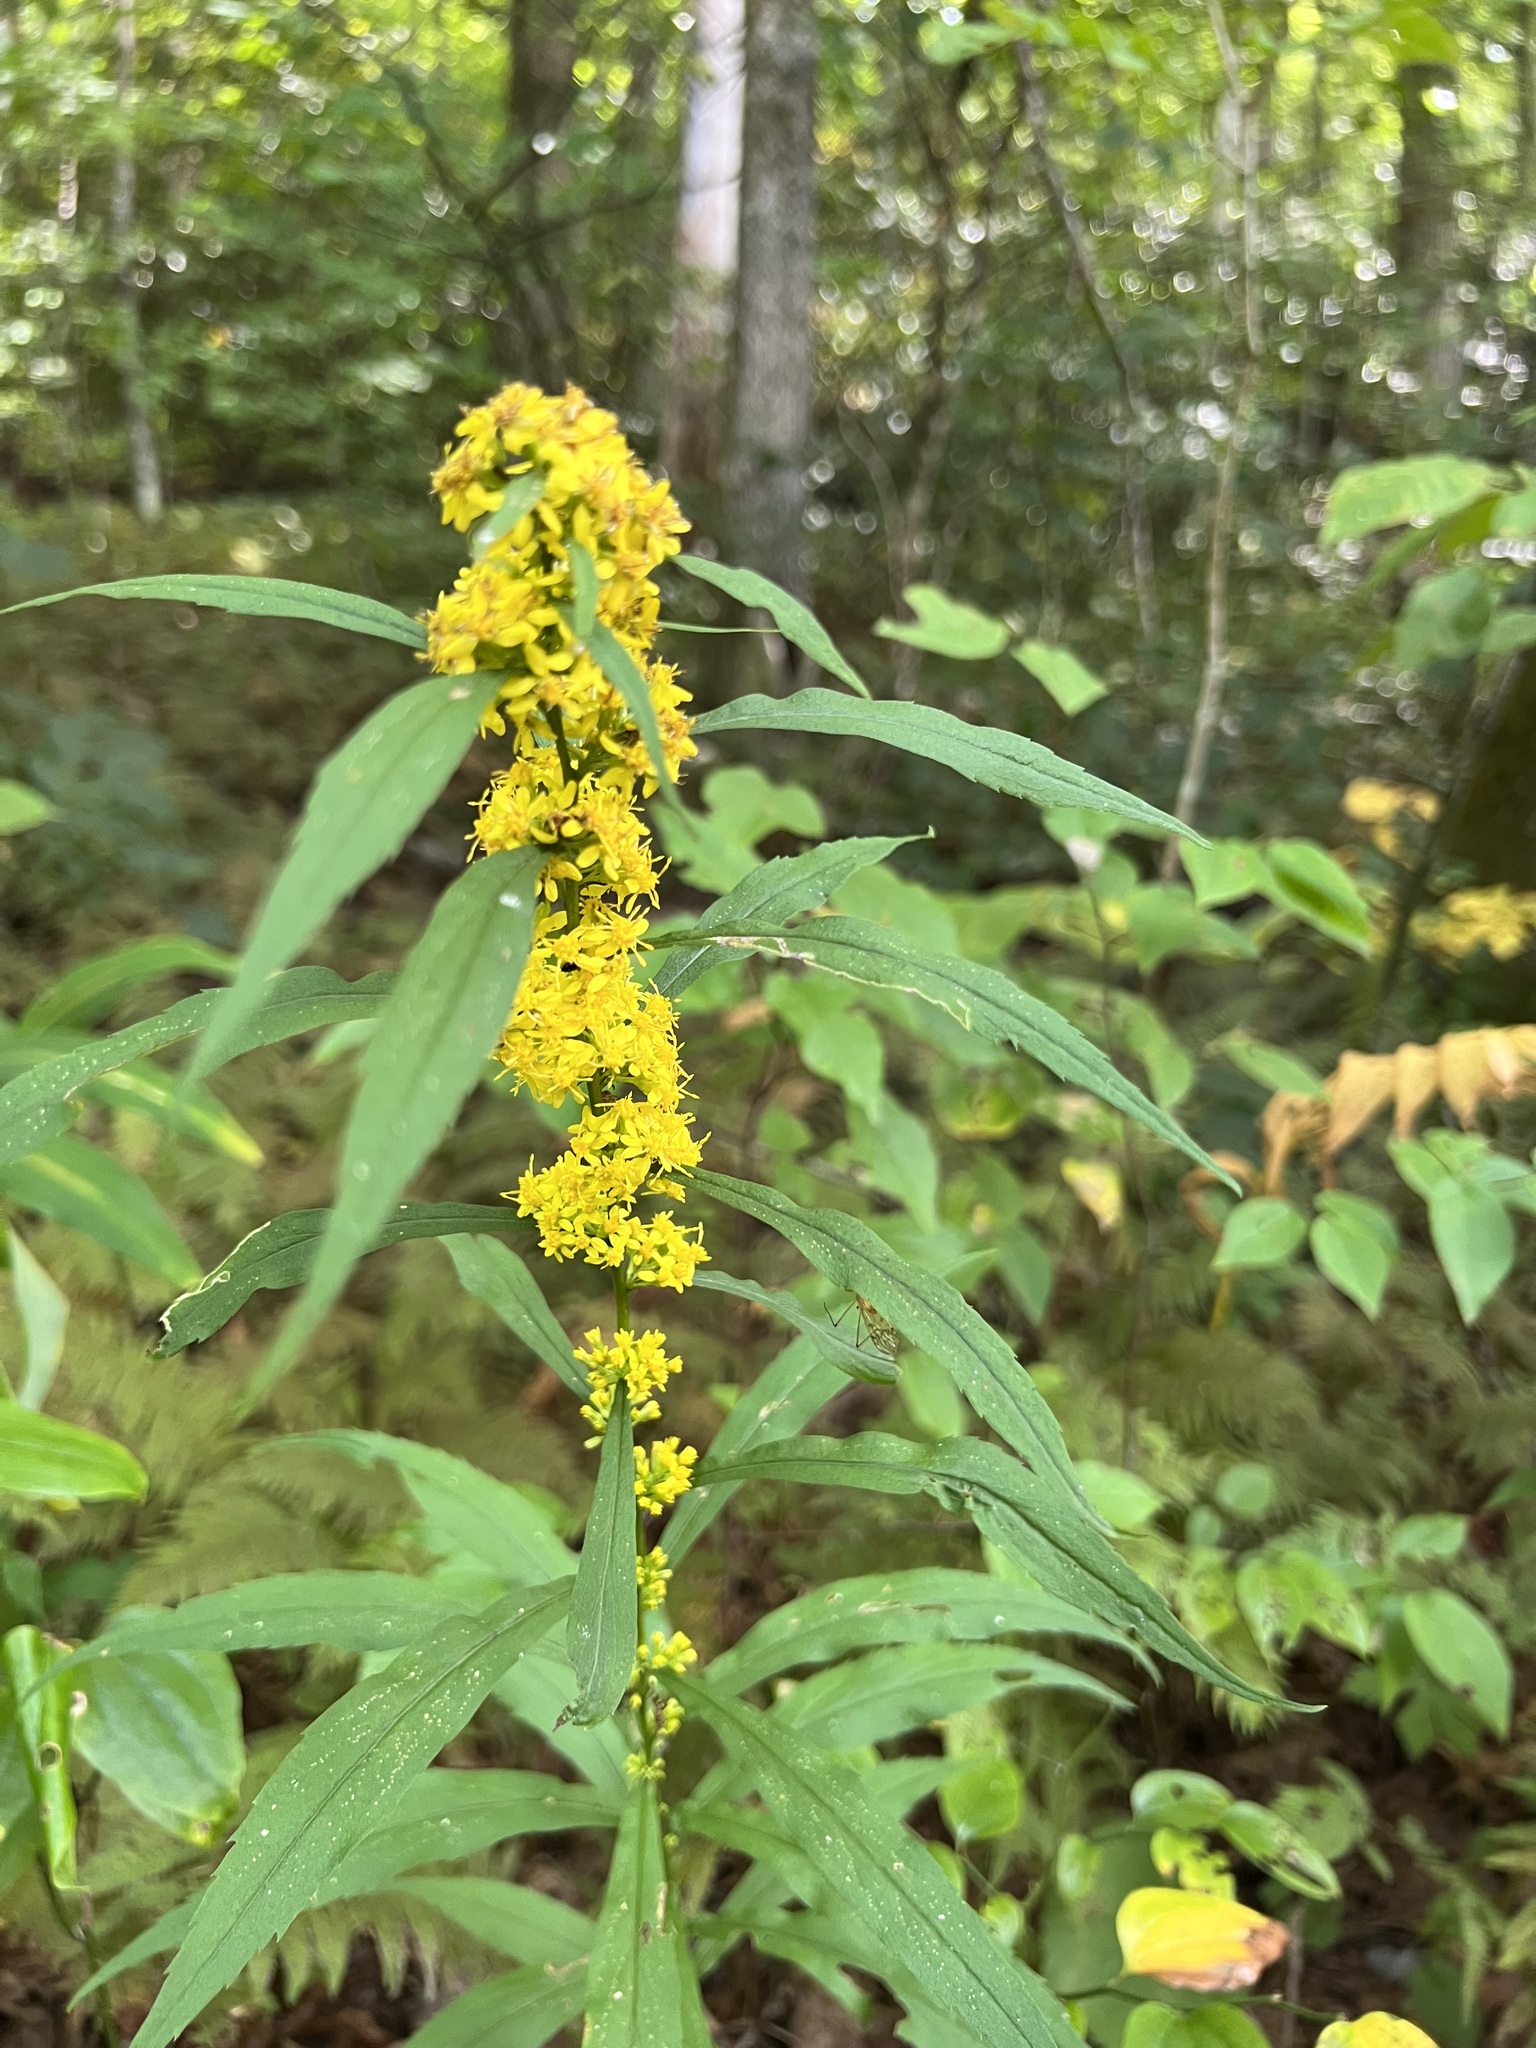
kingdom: Plantae
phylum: Tracheophyta
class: Magnoliopsida
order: Apiales
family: Apiaceae
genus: Angelica
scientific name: Angelica triquinata
